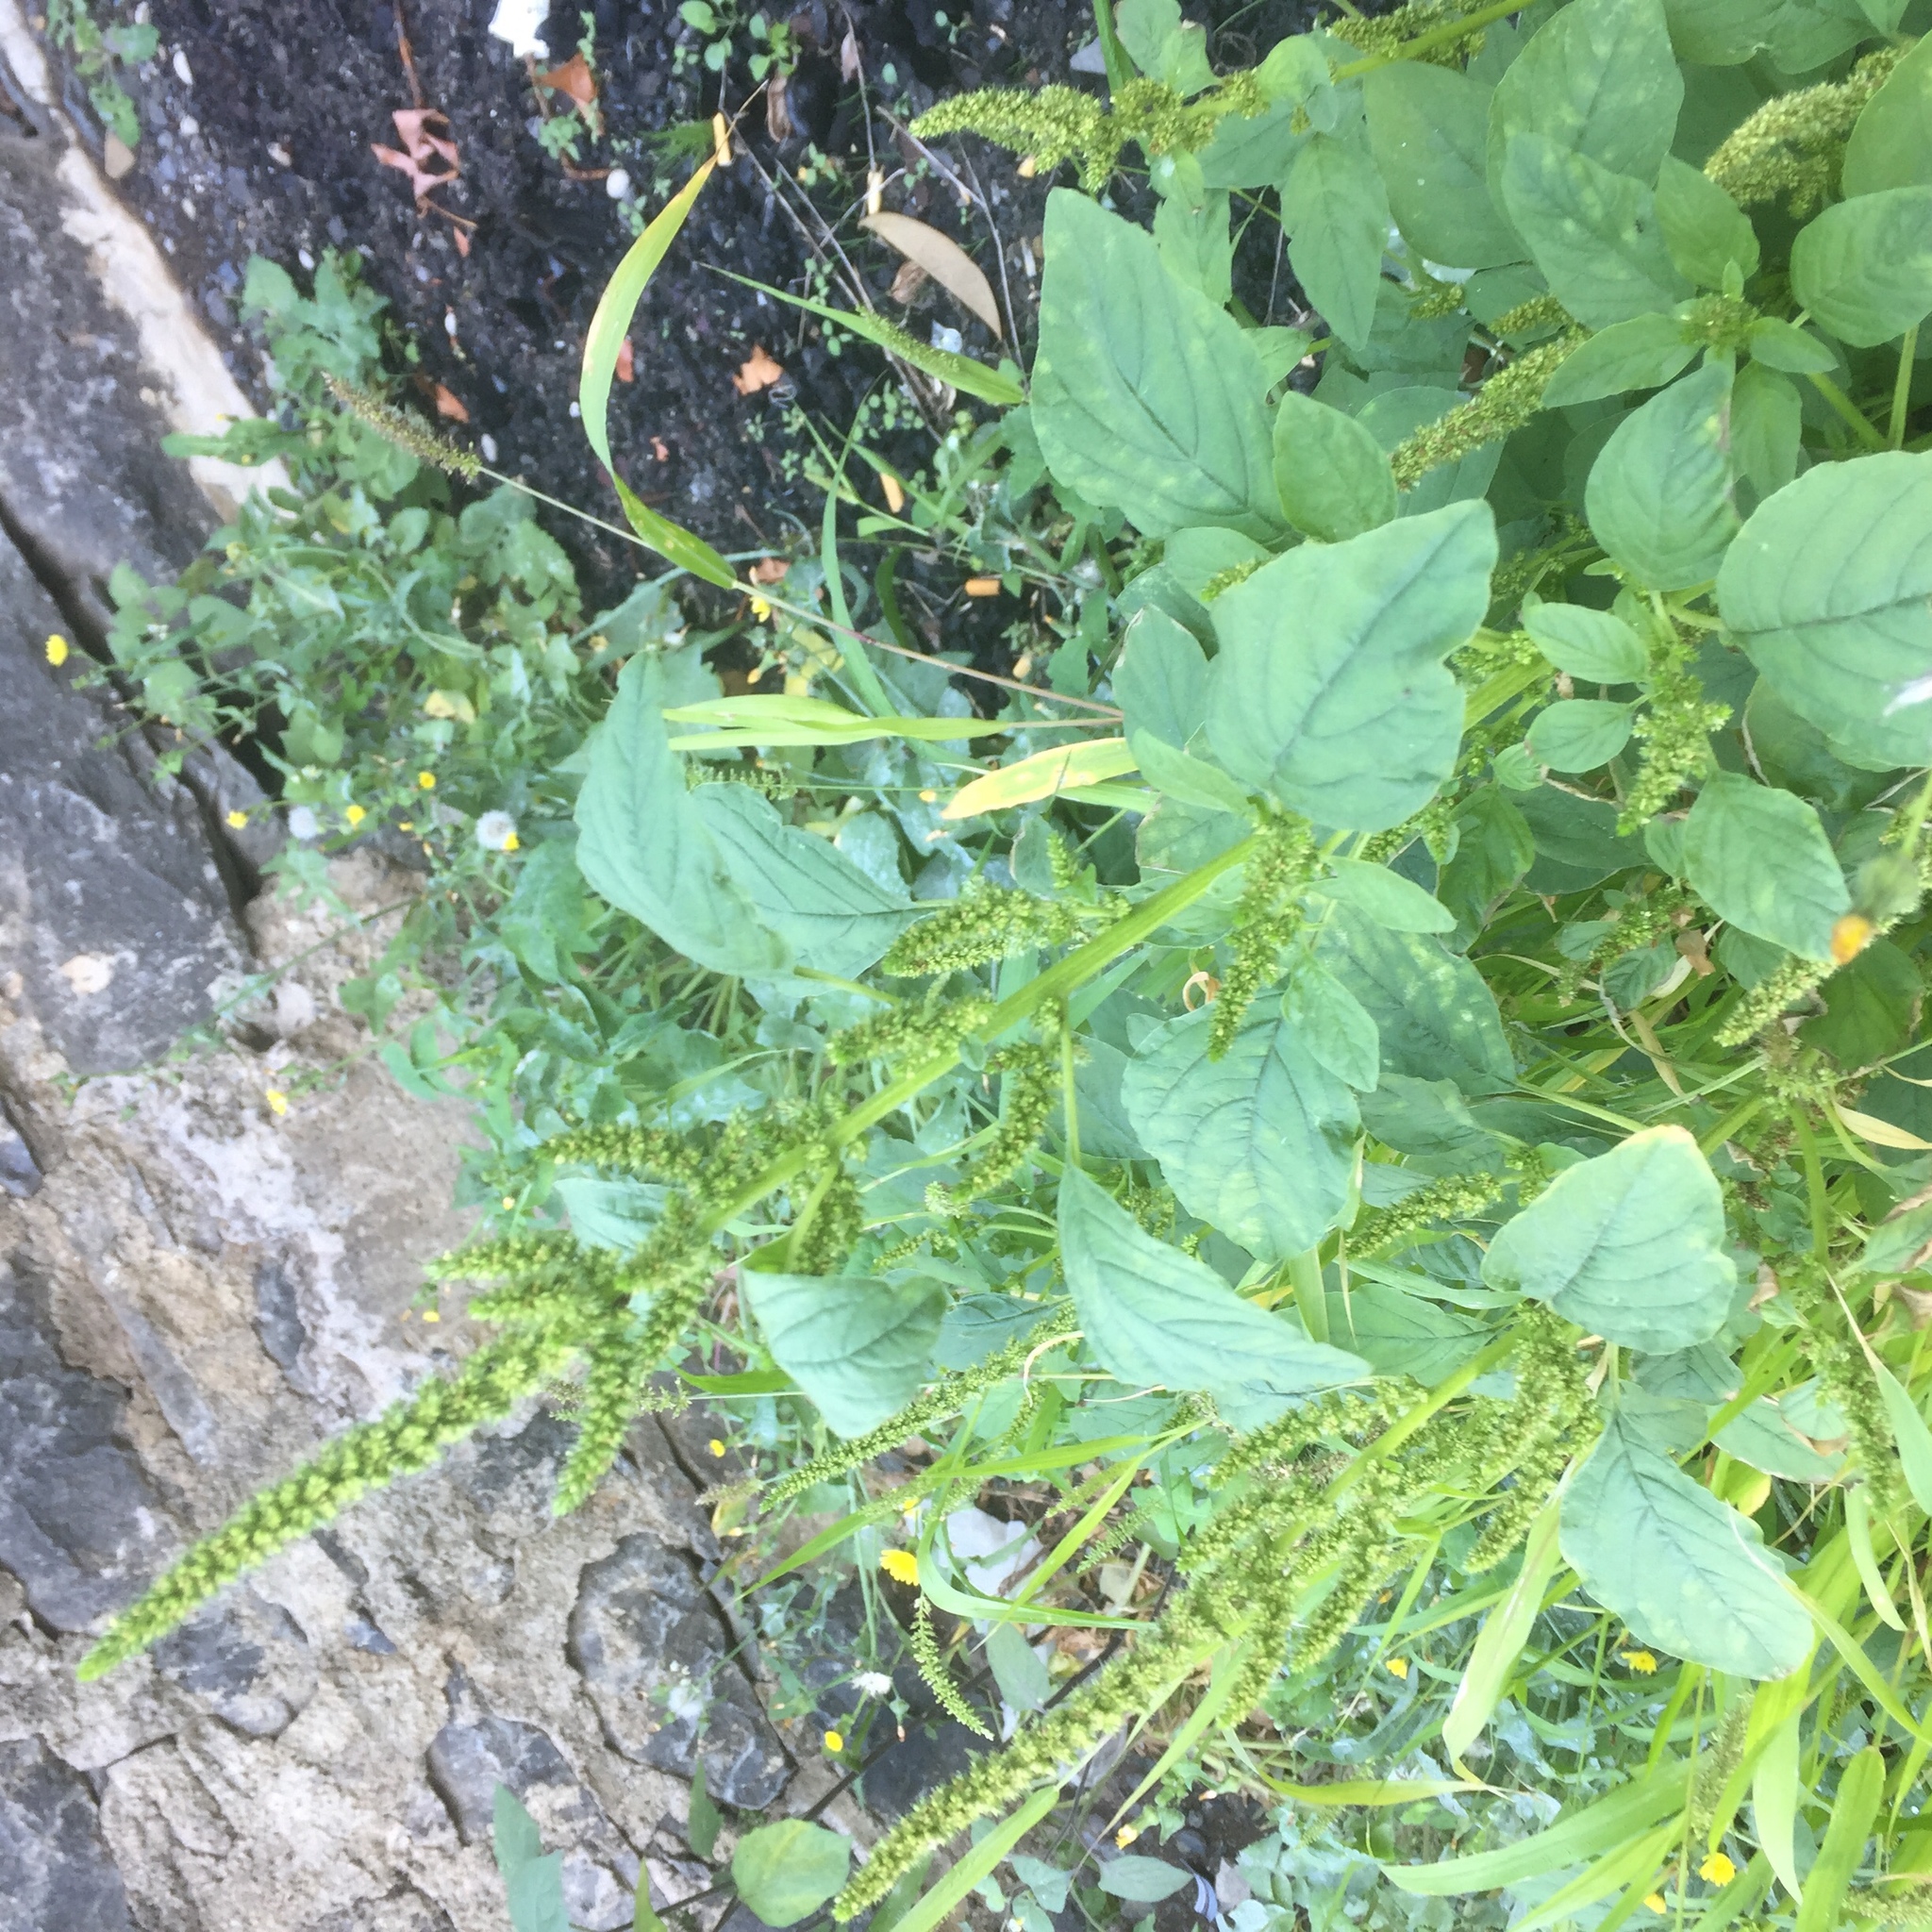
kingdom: Plantae
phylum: Tracheophyta
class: Magnoliopsida
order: Caryophyllales
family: Amaranthaceae
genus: Amaranthus
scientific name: Amaranthus palmeri
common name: Dioecious amaranth
